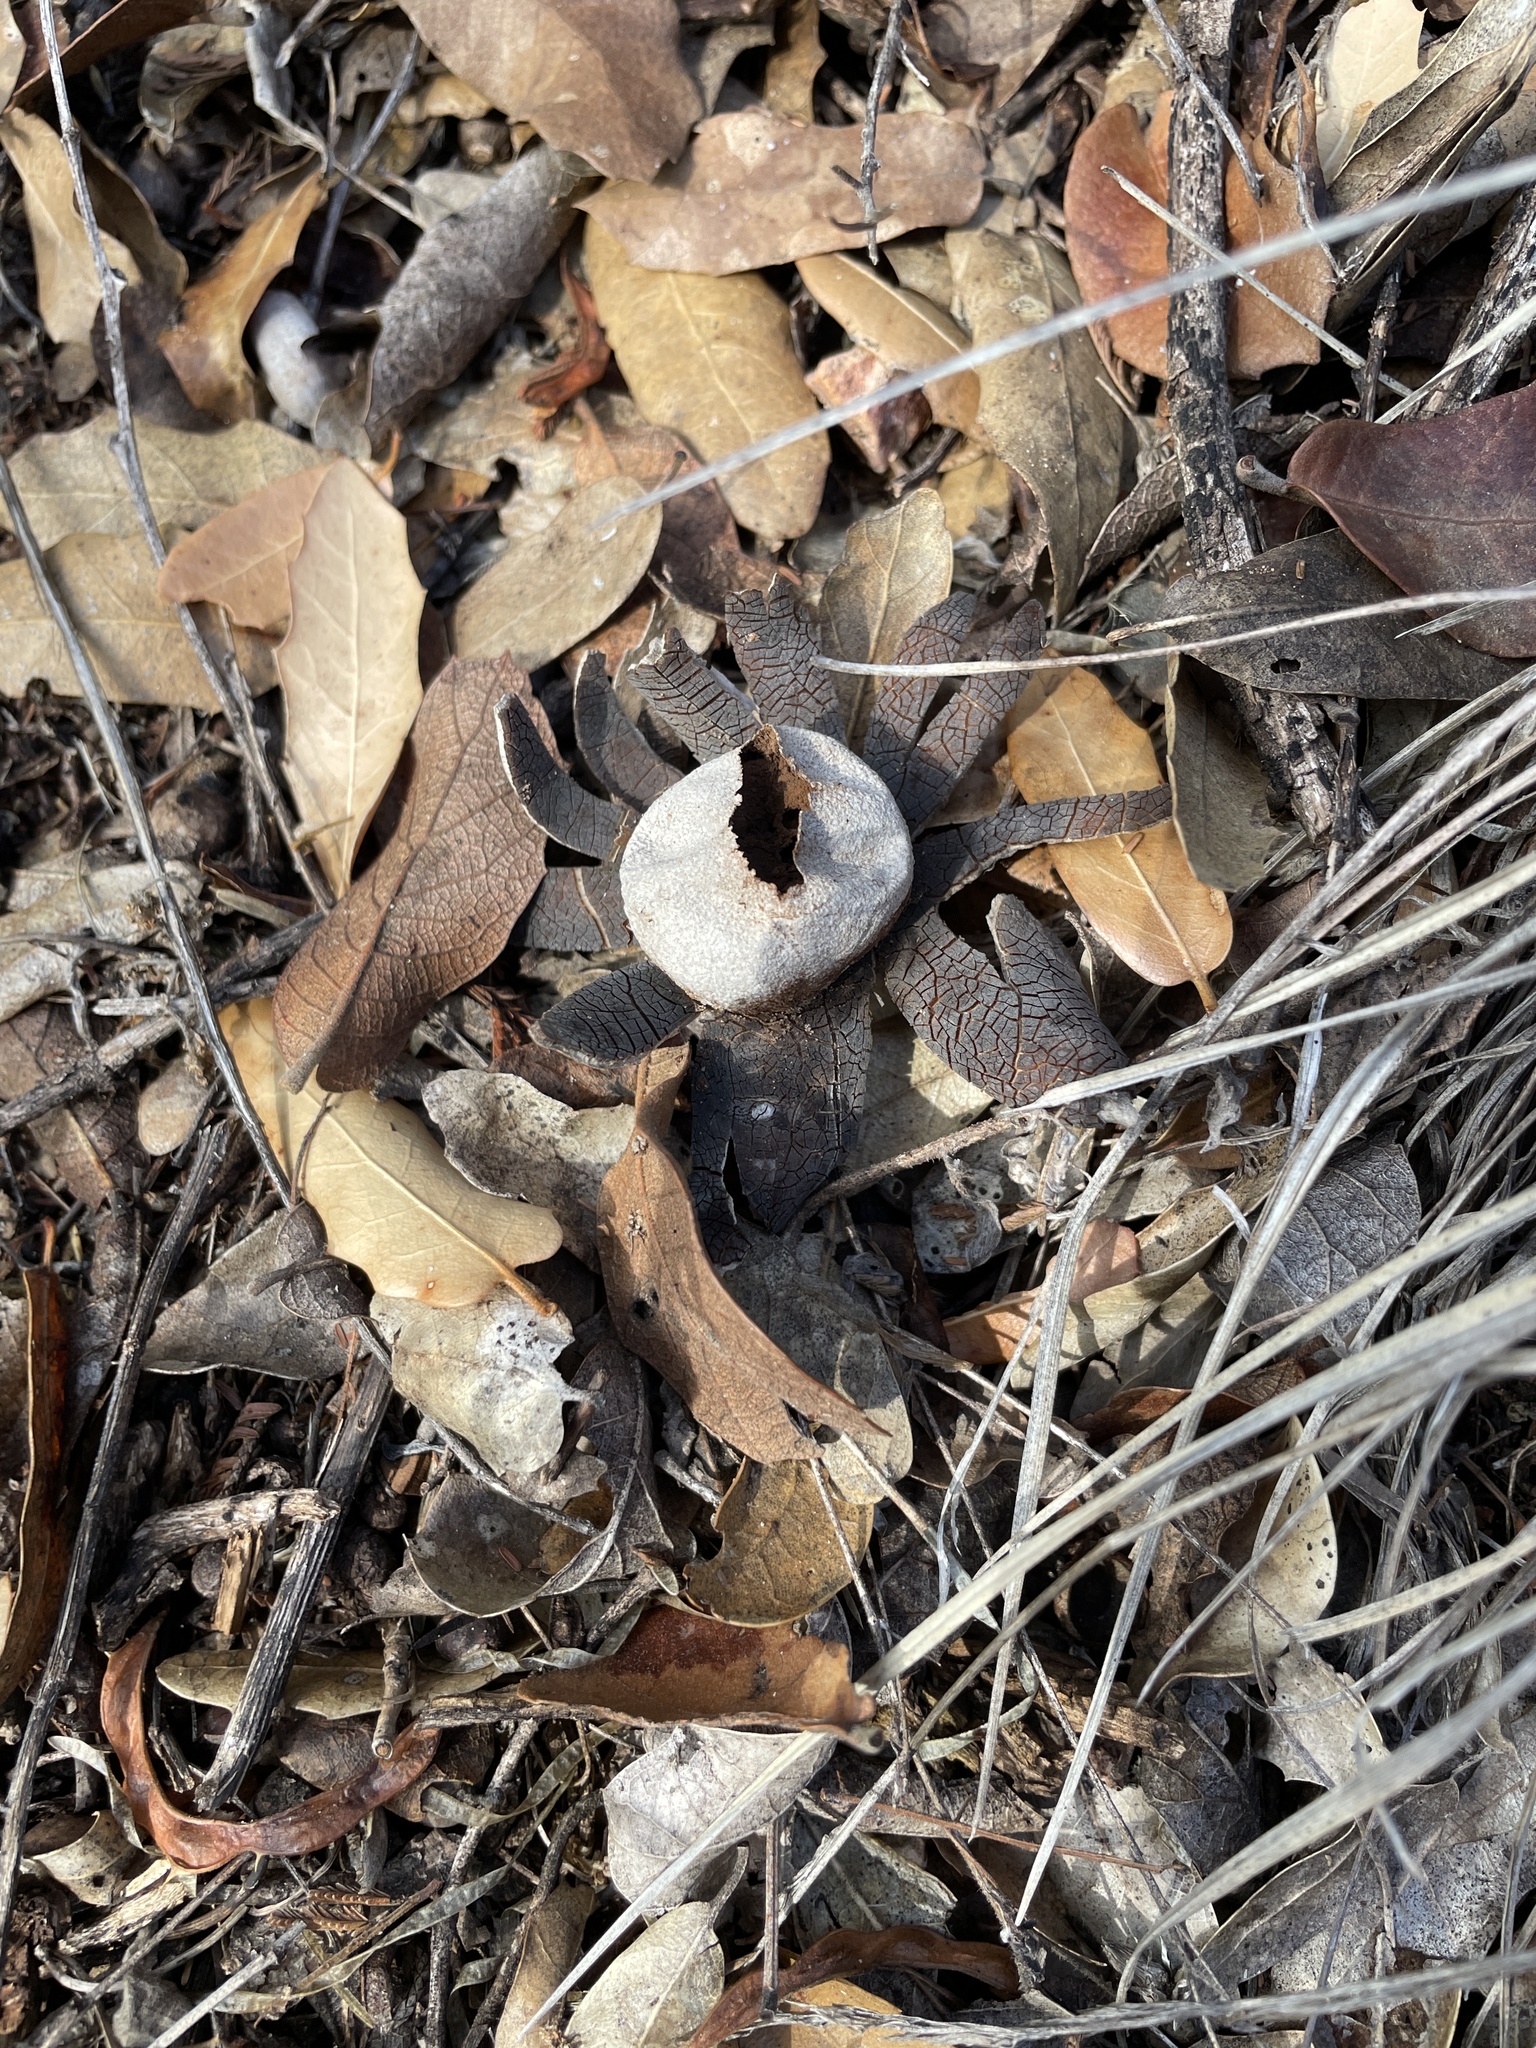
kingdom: Fungi
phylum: Basidiomycota
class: Agaricomycetes
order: Boletales
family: Diplocystidiaceae
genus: Astraeus
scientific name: Astraeus morganii
